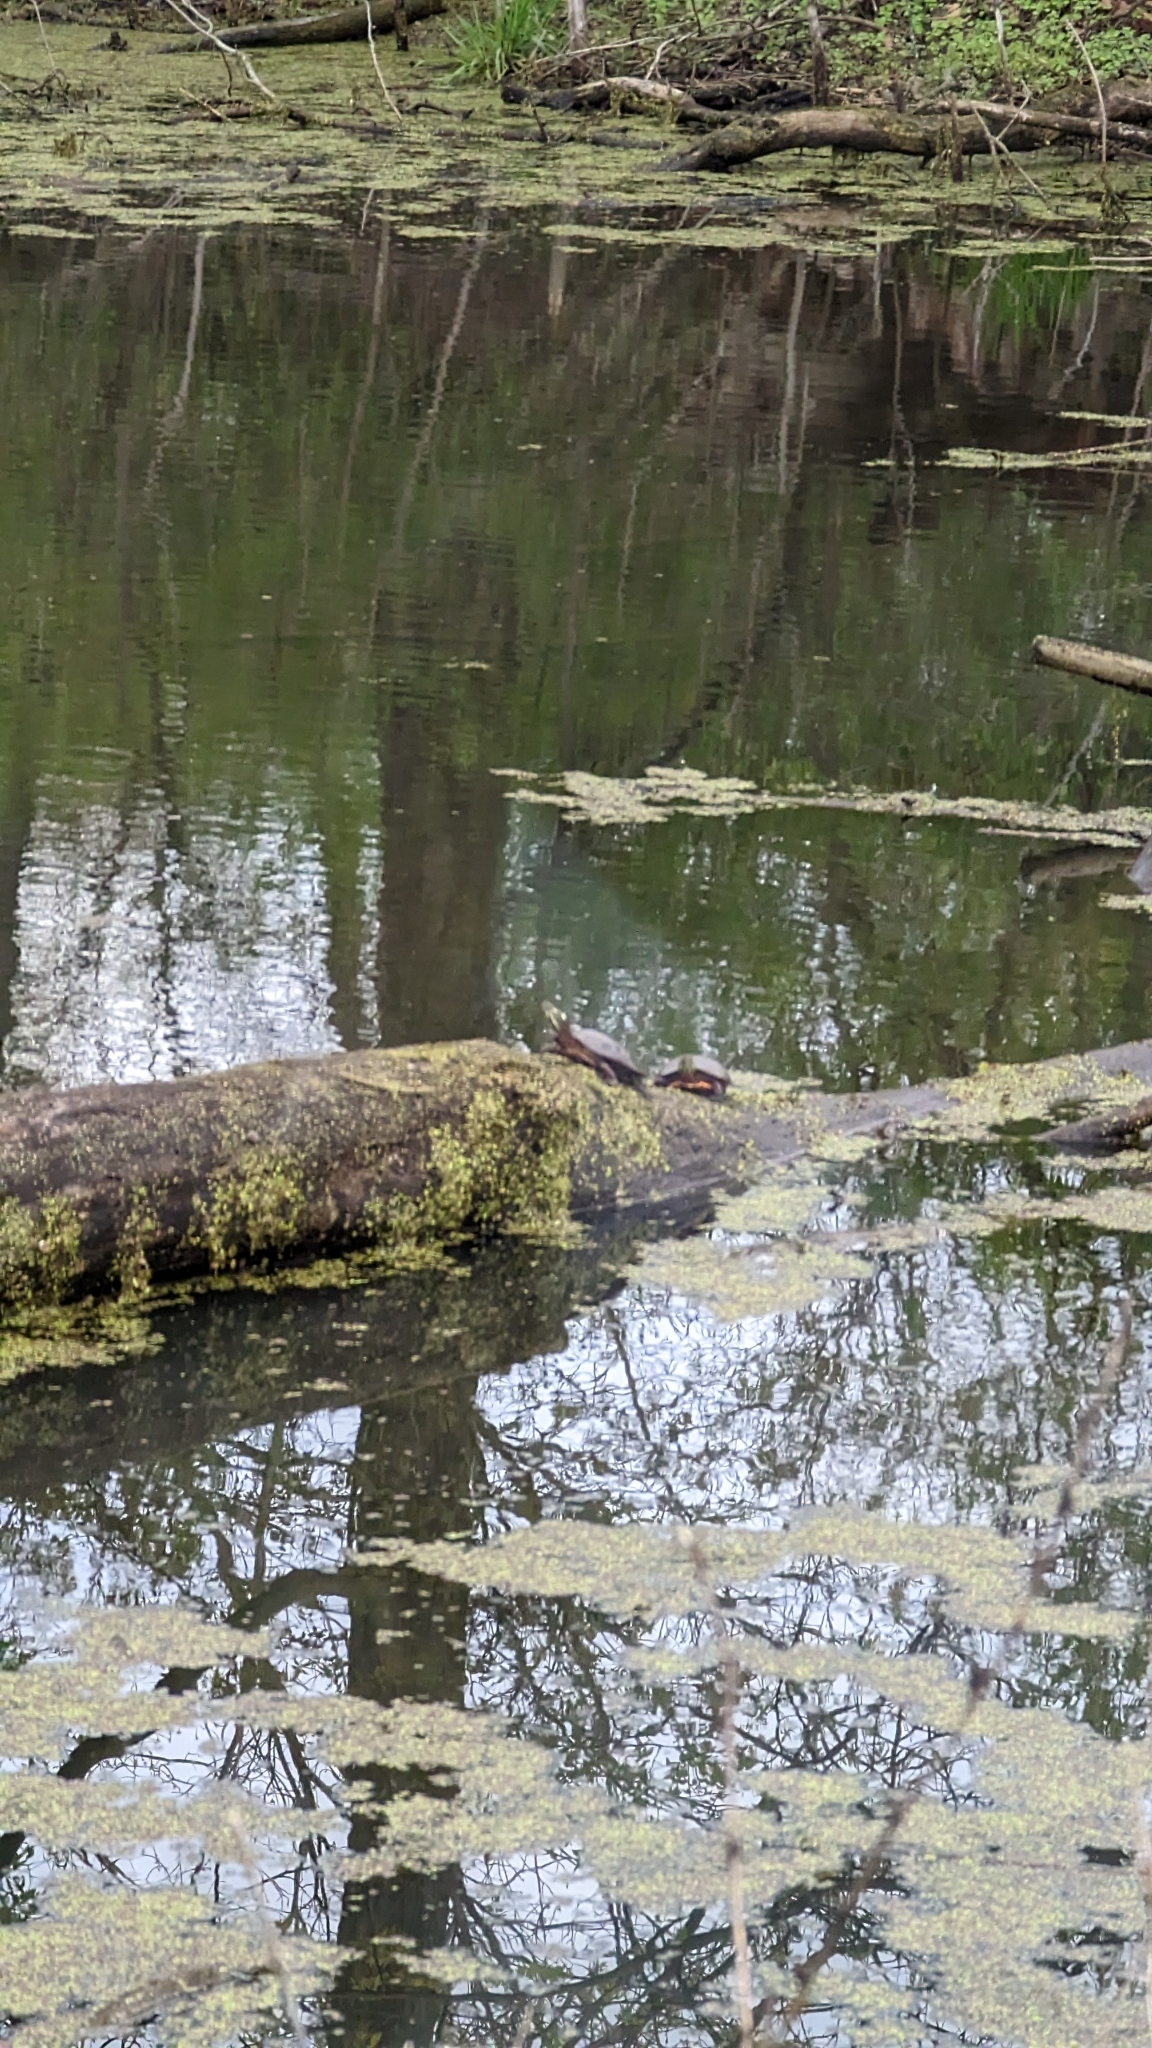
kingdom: Animalia
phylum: Chordata
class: Testudines
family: Emydidae
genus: Chrysemys
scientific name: Chrysemys picta
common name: Painted turtle
